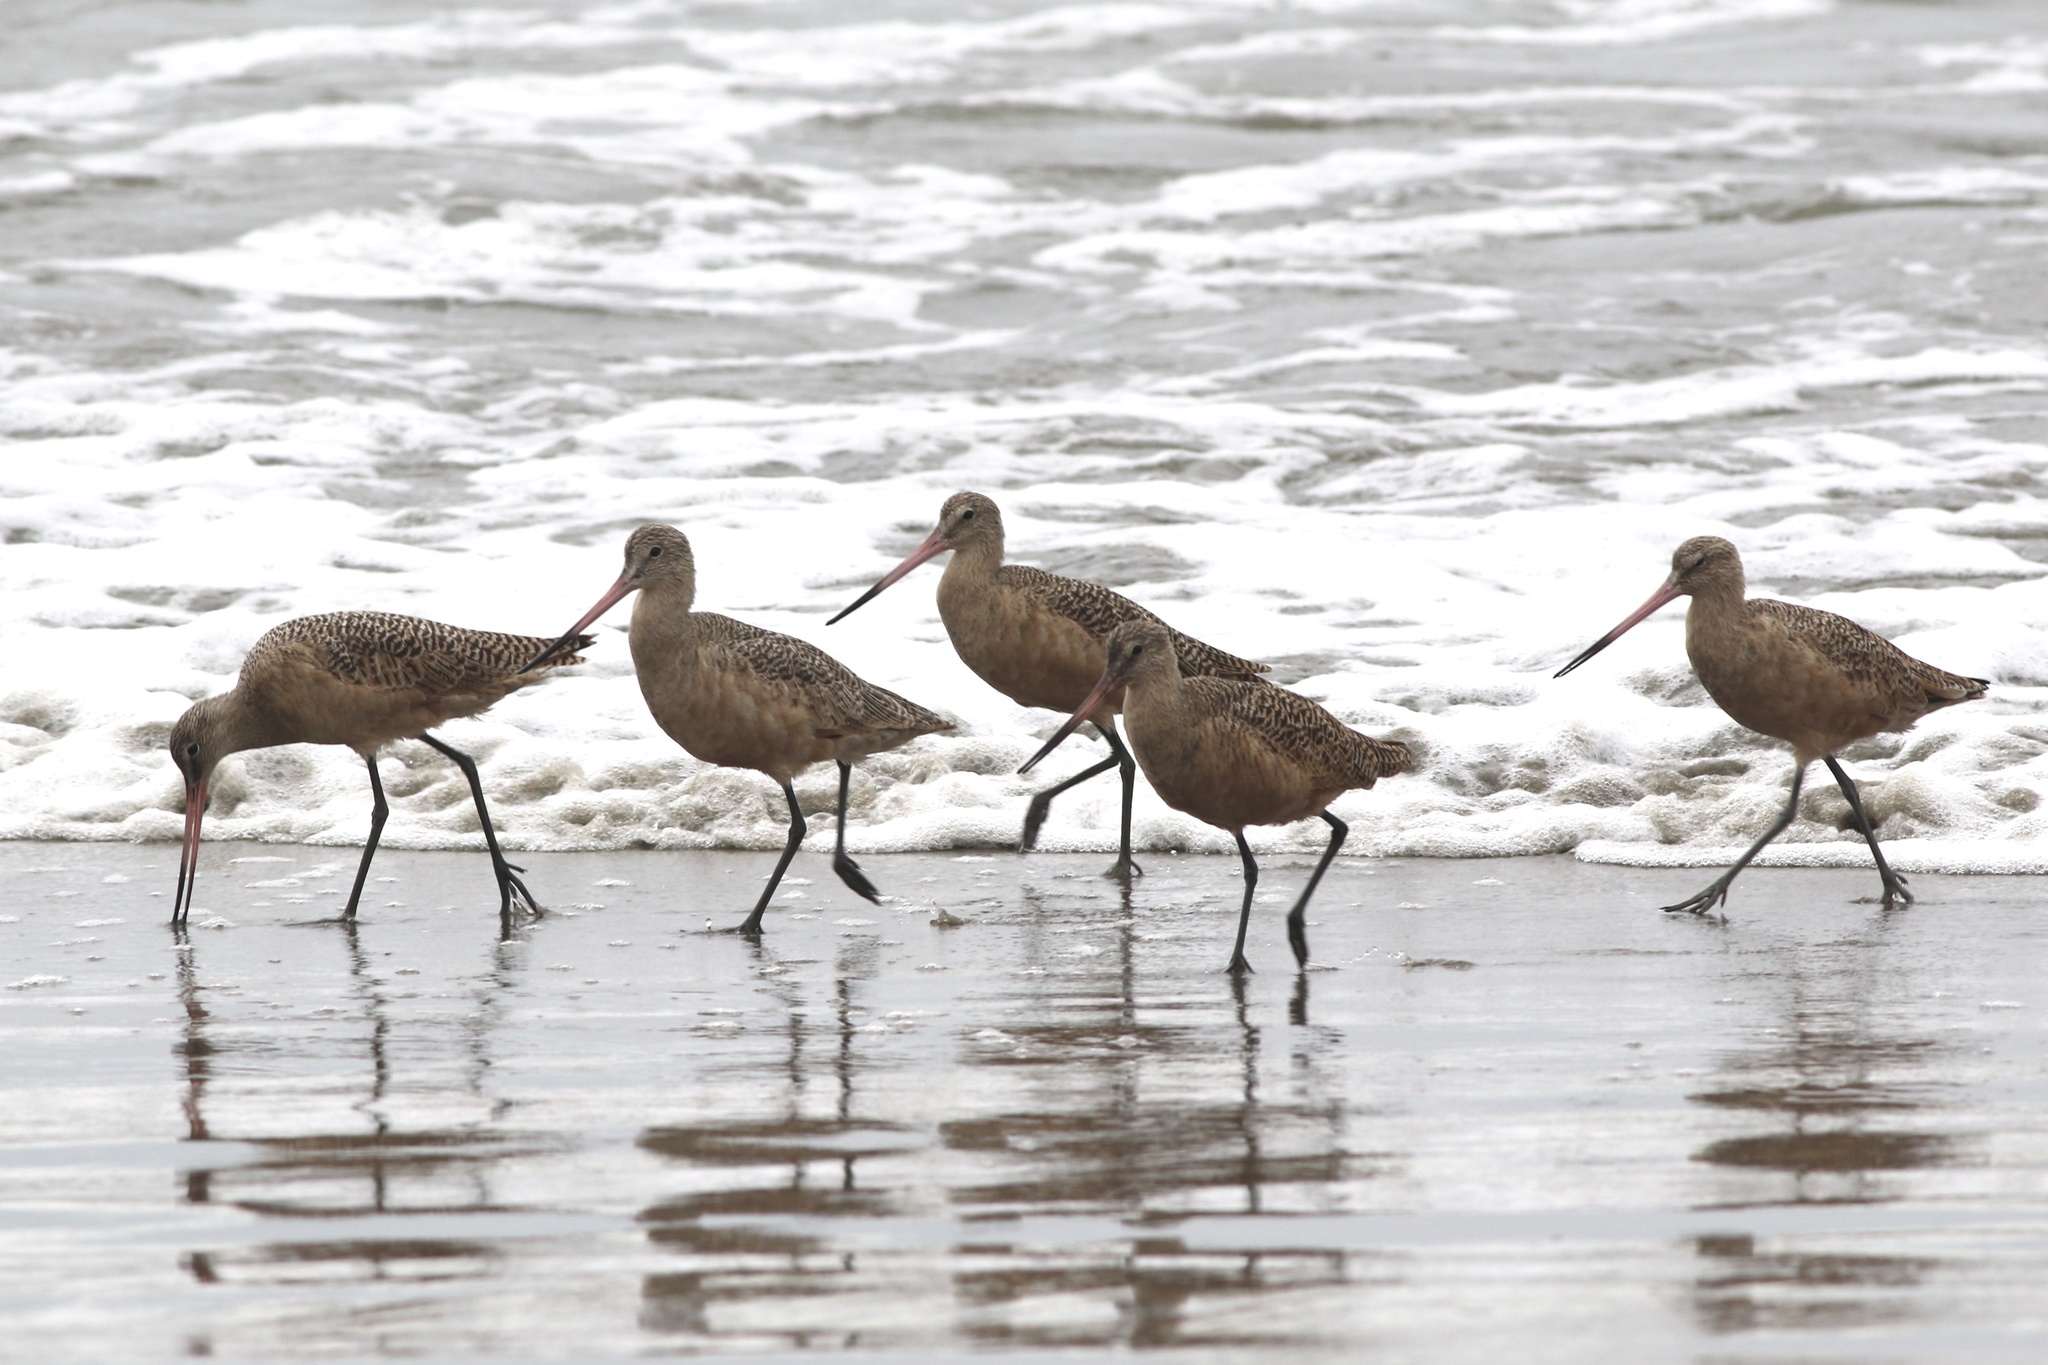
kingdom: Animalia
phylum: Chordata
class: Aves
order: Charadriiformes
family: Scolopacidae
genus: Limosa
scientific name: Limosa fedoa
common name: Marbled godwit
